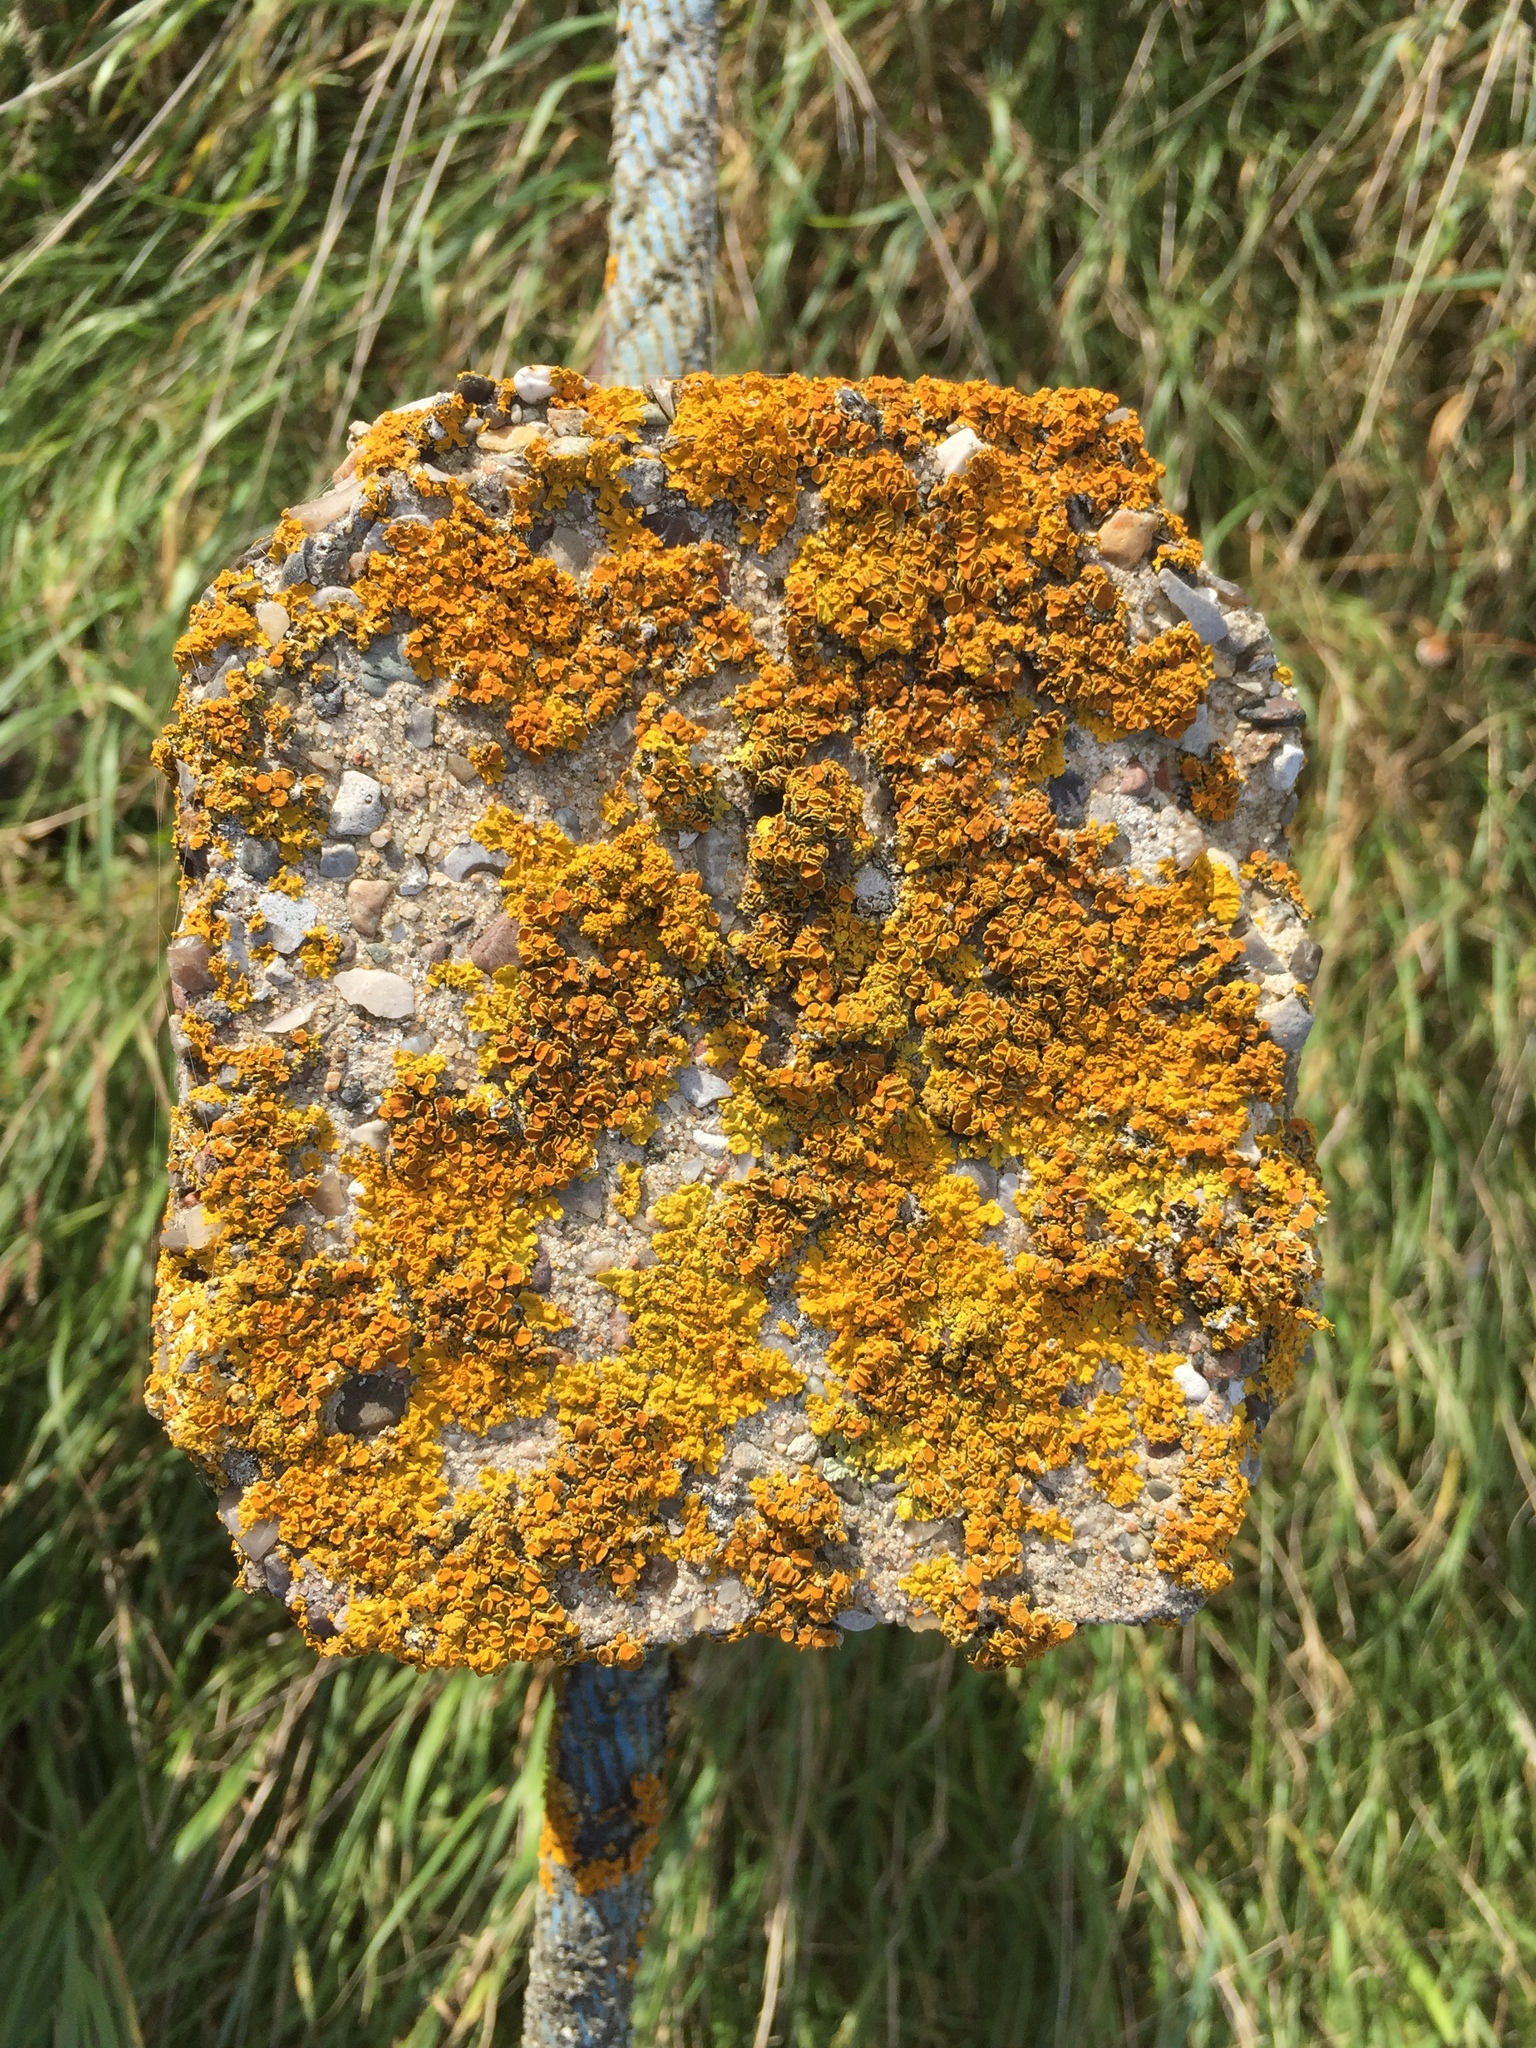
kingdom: Fungi
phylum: Ascomycota
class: Lecanoromycetes
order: Teloschistales
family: Teloschistaceae
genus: Xanthoria
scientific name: Xanthoria parietina
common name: Common orange lichen
